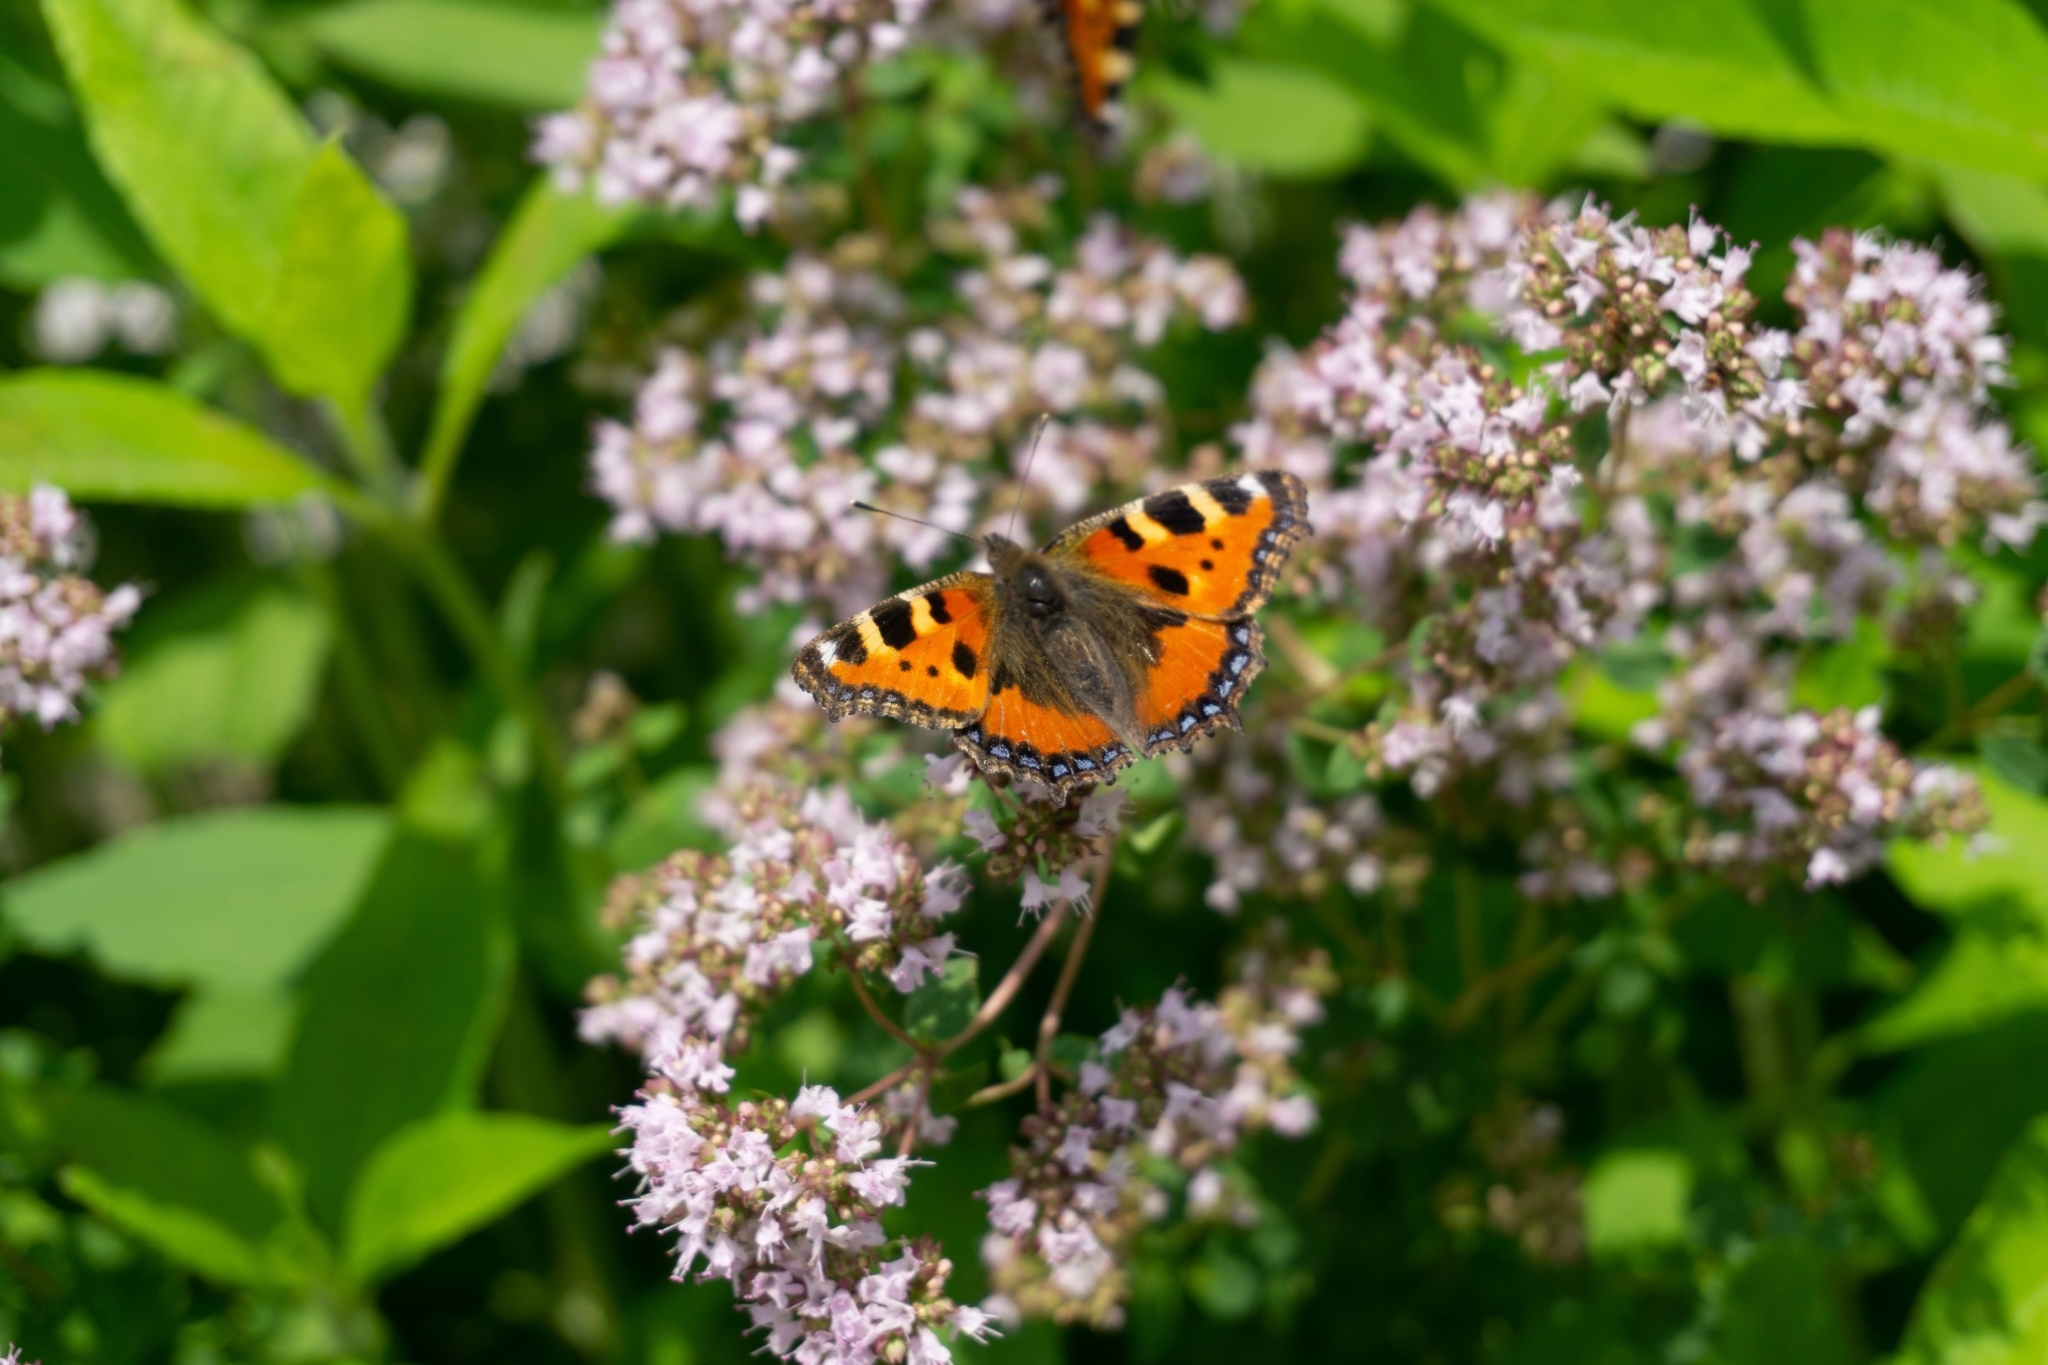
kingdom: Animalia
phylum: Arthropoda
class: Insecta
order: Lepidoptera
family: Nymphalidae
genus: Aglais
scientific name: Aglais urticae
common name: Small tortoiseshell
